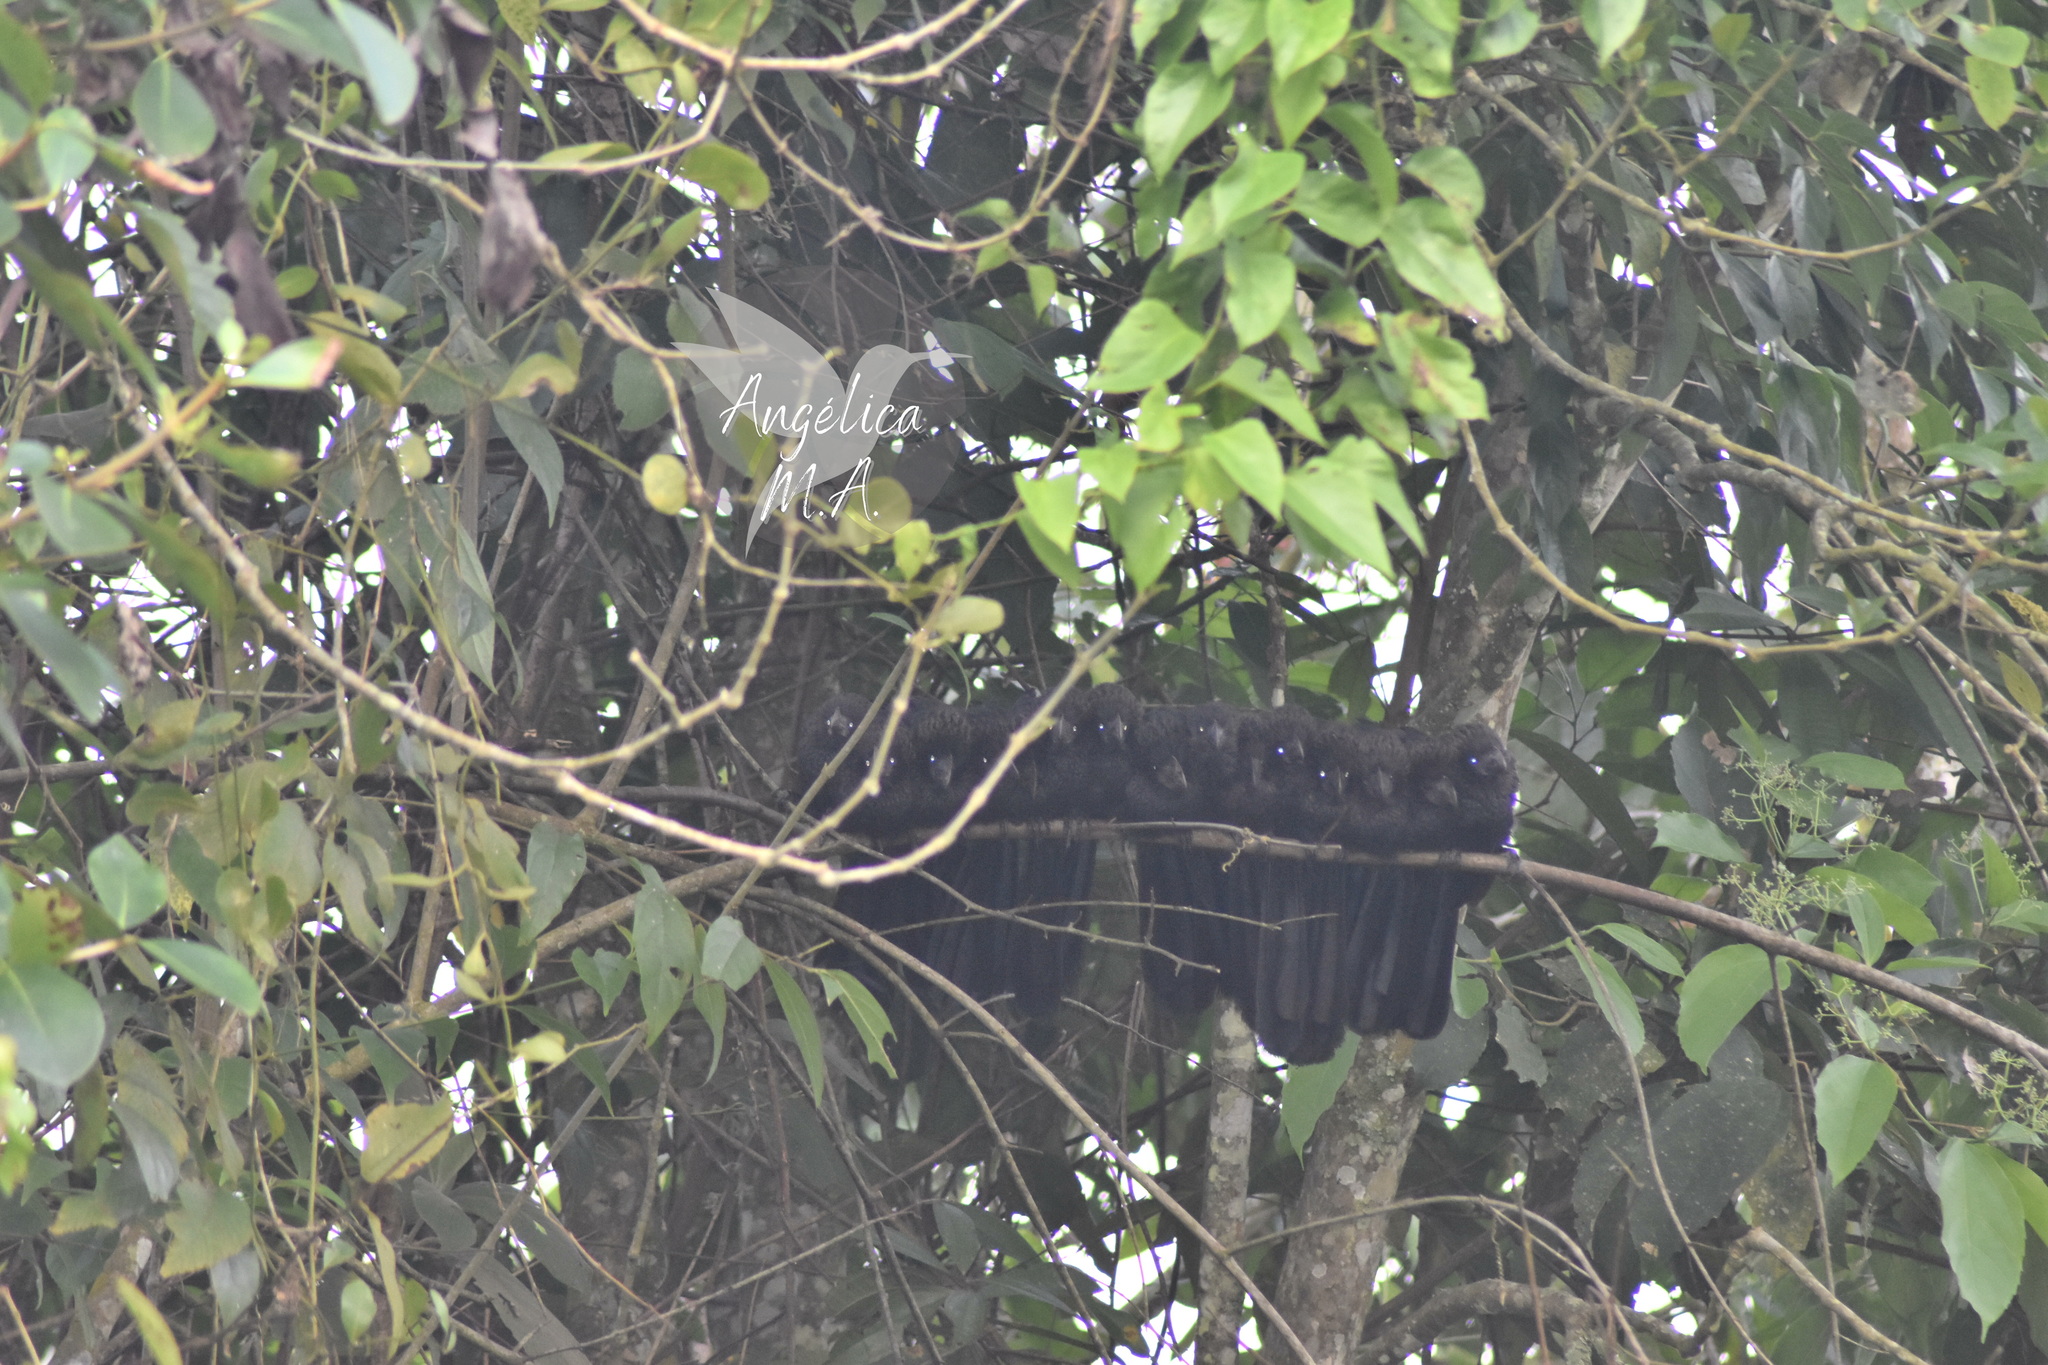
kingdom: Animalia
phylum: Chordata
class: Aves
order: Cuculiformes
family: Cuculidae
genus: Crotophaga
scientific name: Crotophaga ani
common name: Smooth-billed ani
